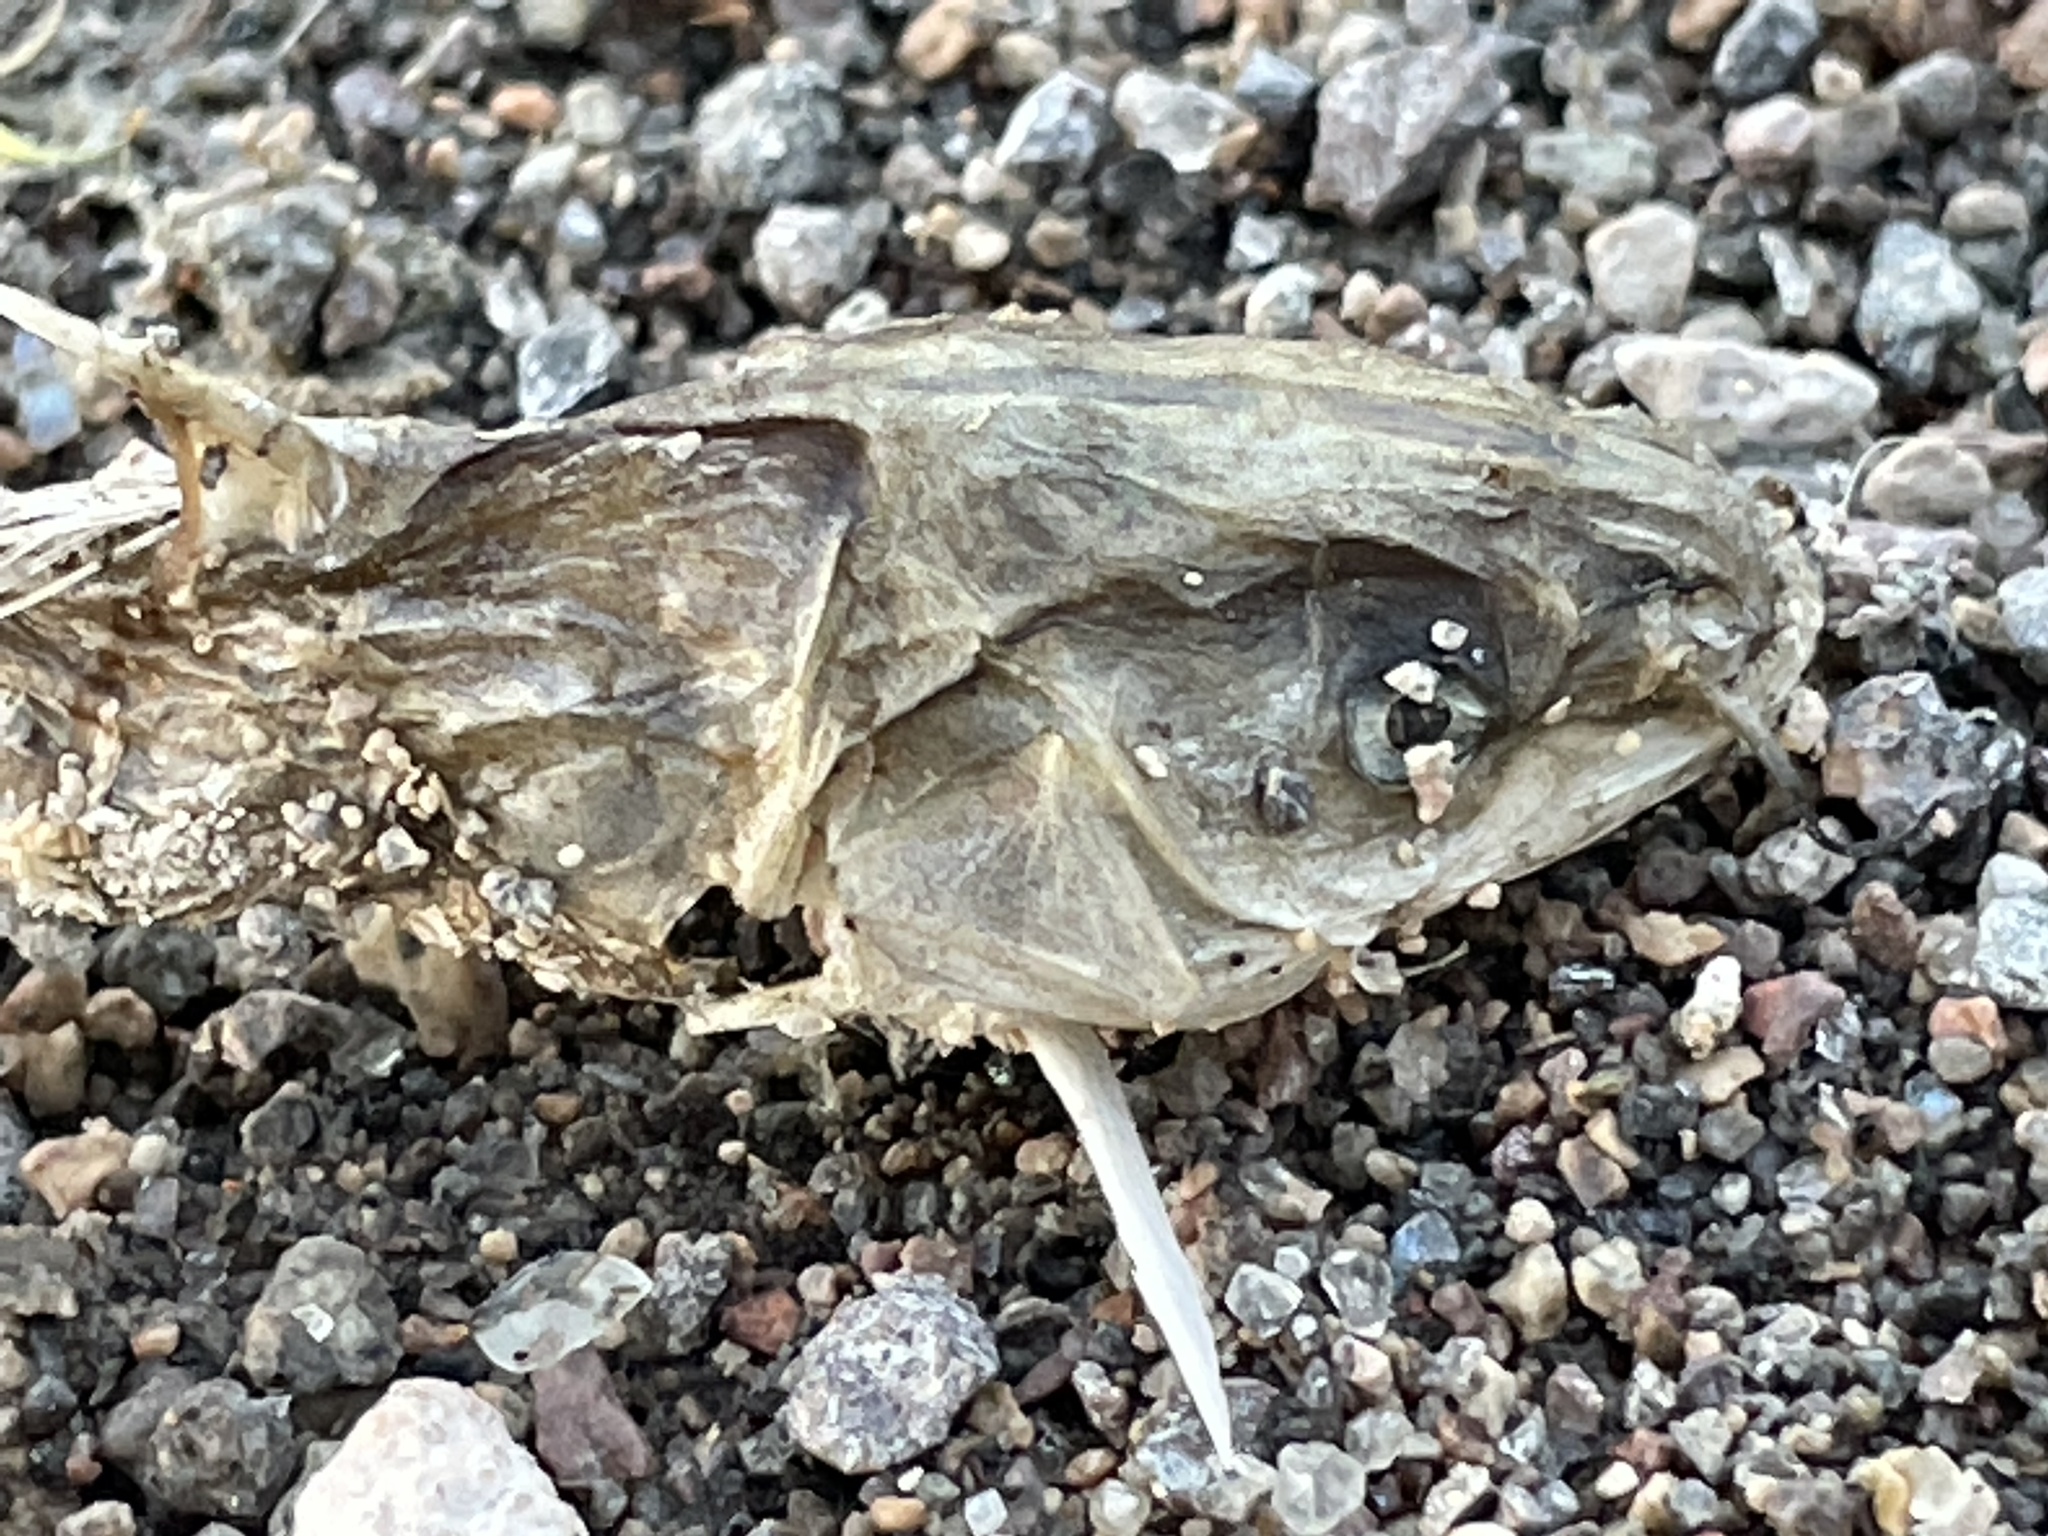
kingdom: Animalia
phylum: Chordata
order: Siluriformes
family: Ictaluridae
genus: Ictalurus
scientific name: Ictalurus punctatus
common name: Channel catfish
